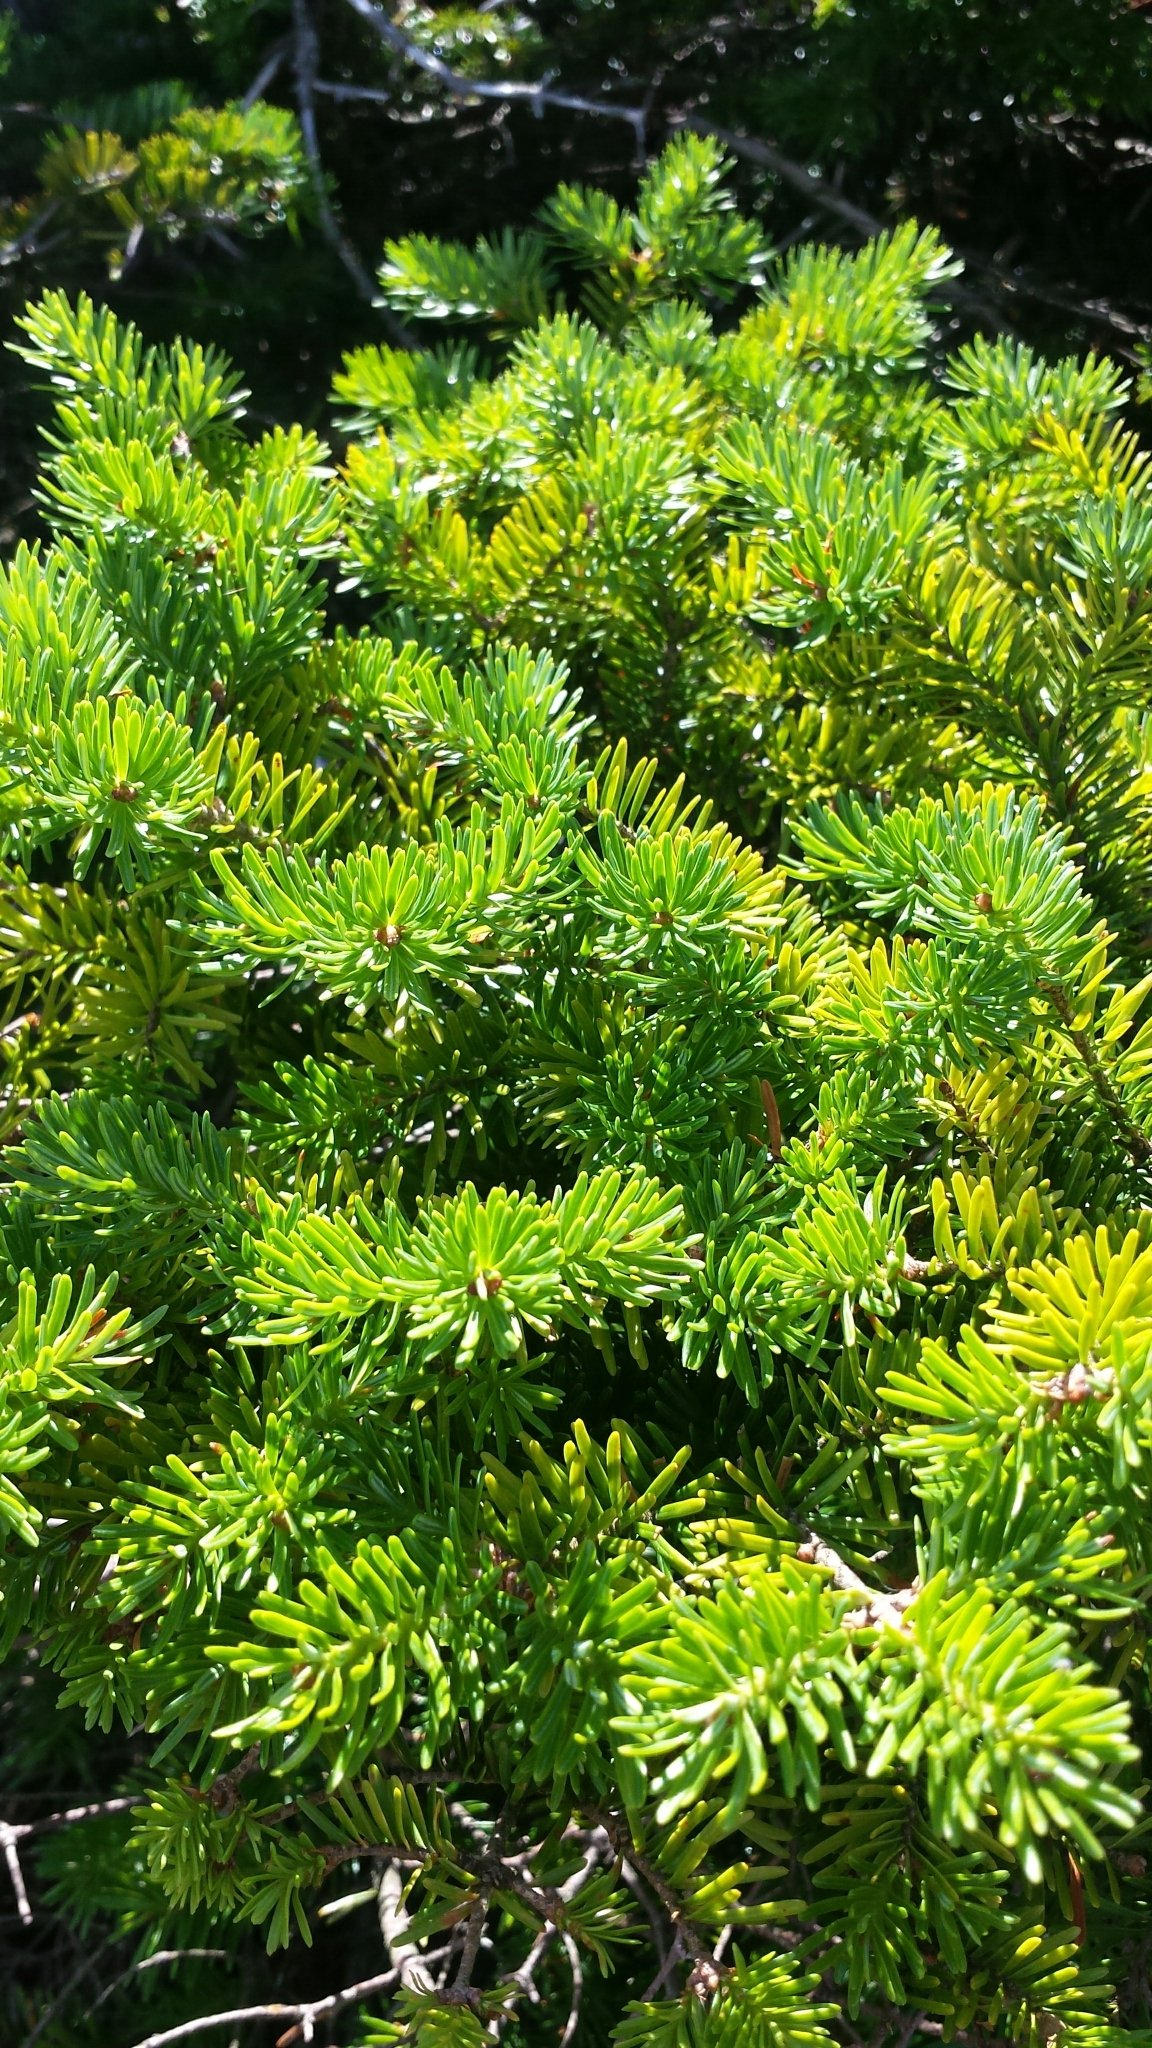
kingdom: Plantae
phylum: Tracheophyta
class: Pinopsida
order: Pinales
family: Pinaceae
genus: Abies
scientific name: Abies balsamea
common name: Balsam fir
